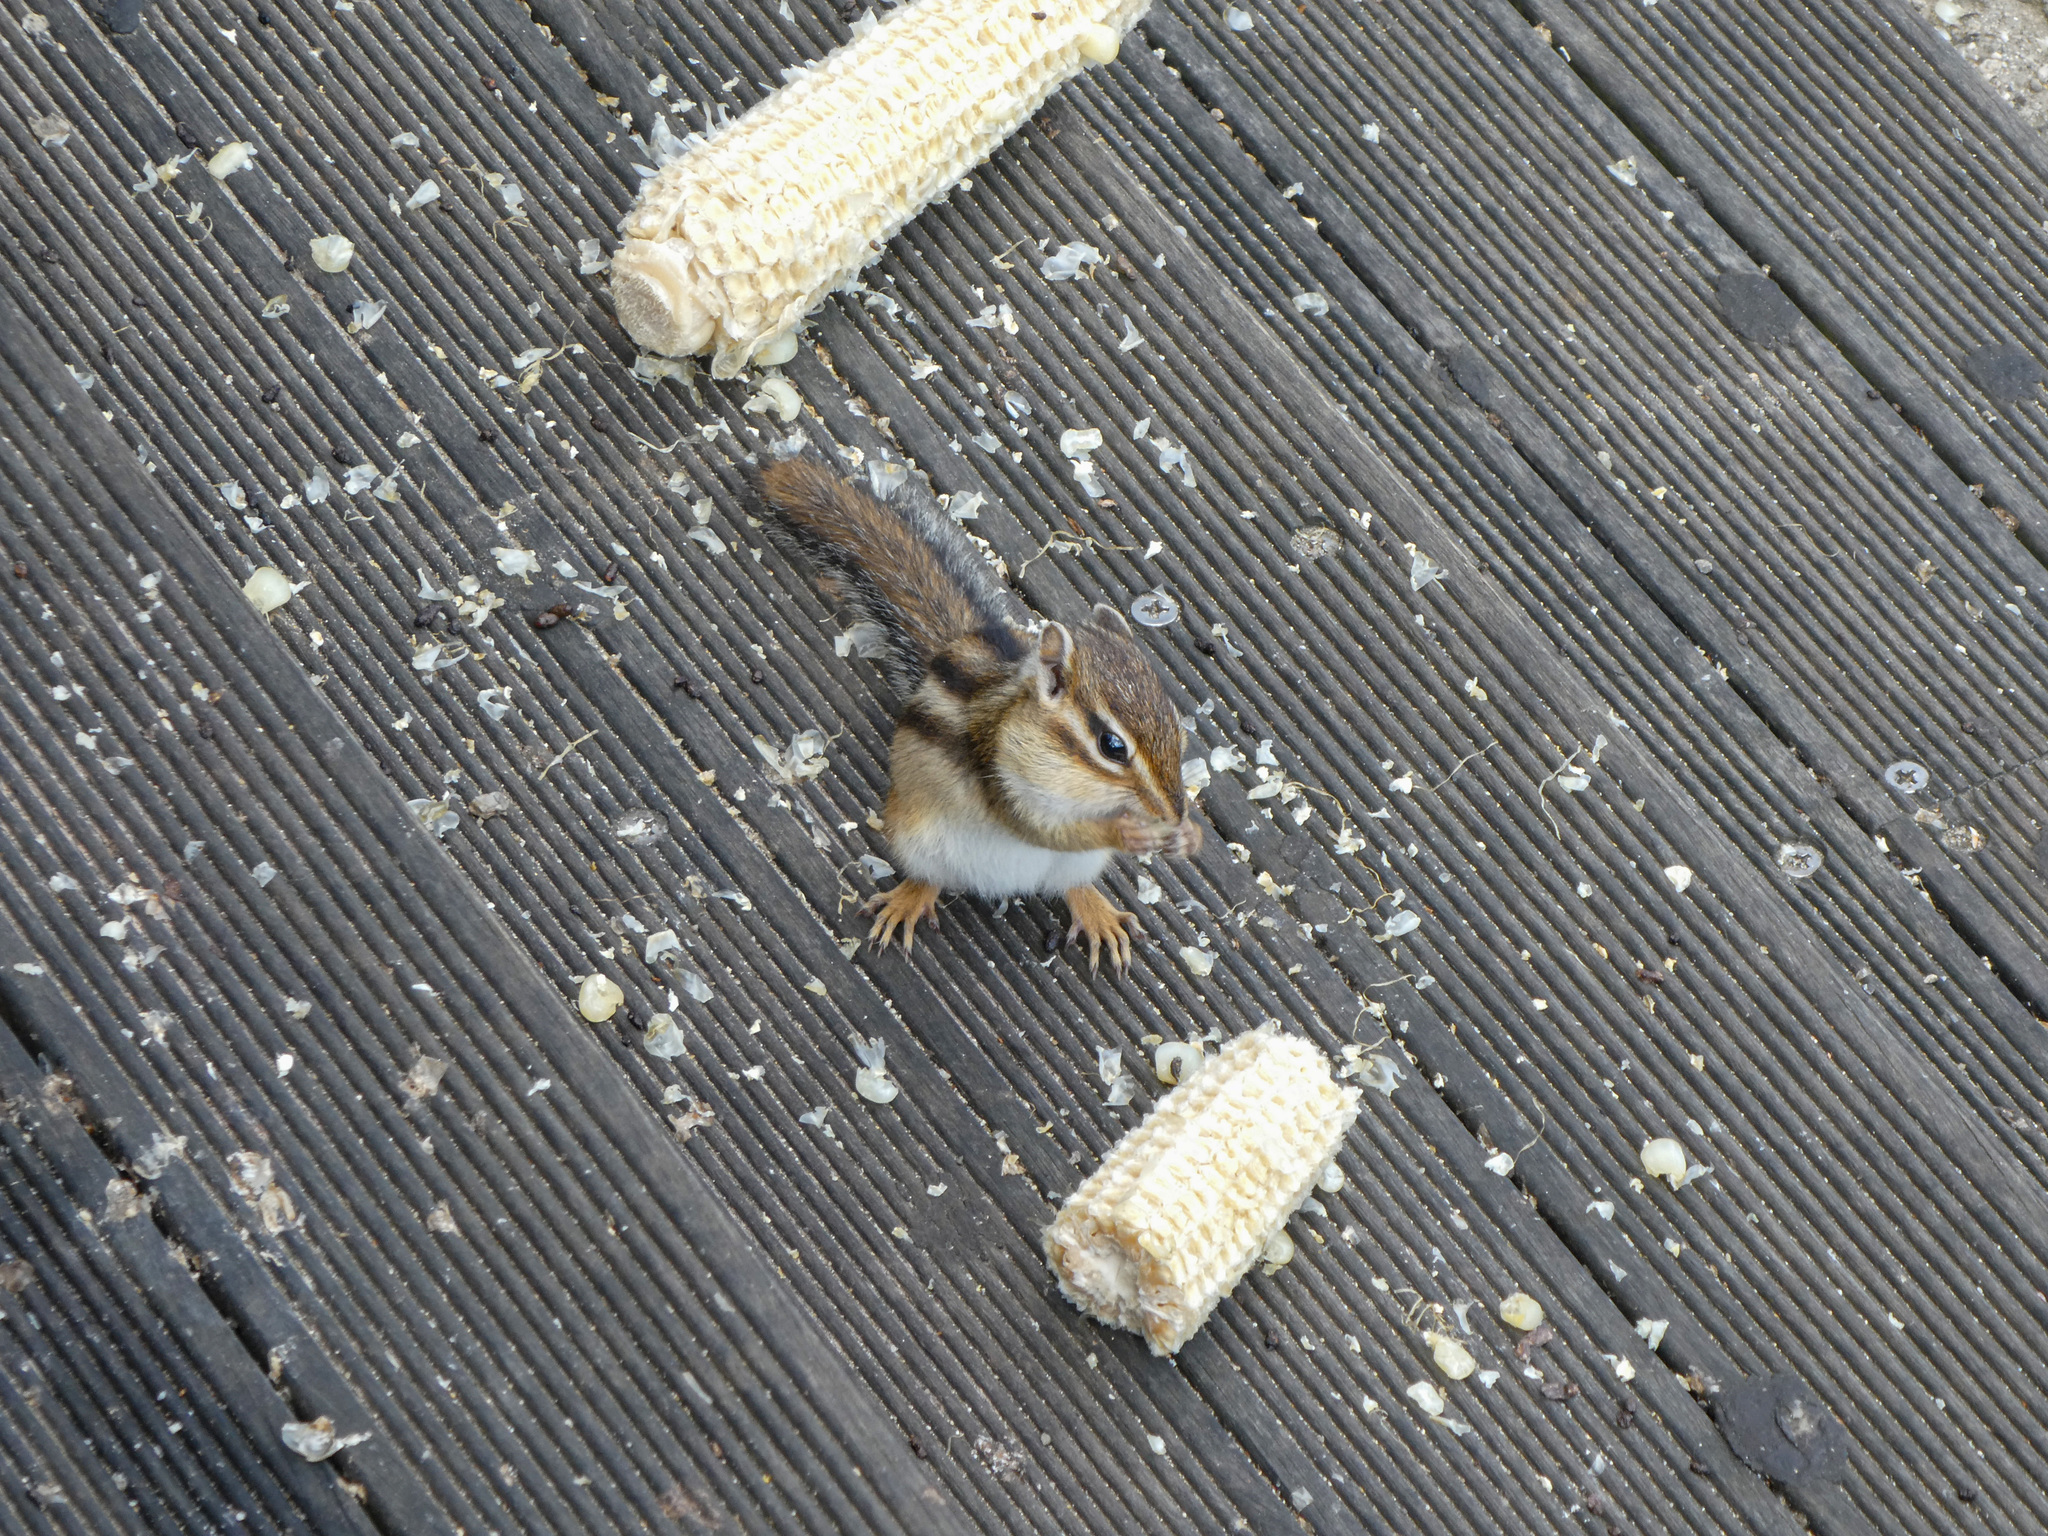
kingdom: Animalia
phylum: Chordata
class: Mammalia
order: Rodentia
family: Sciuridae
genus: Tamias
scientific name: Tamias sibiricus
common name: Siberian chipmunk
